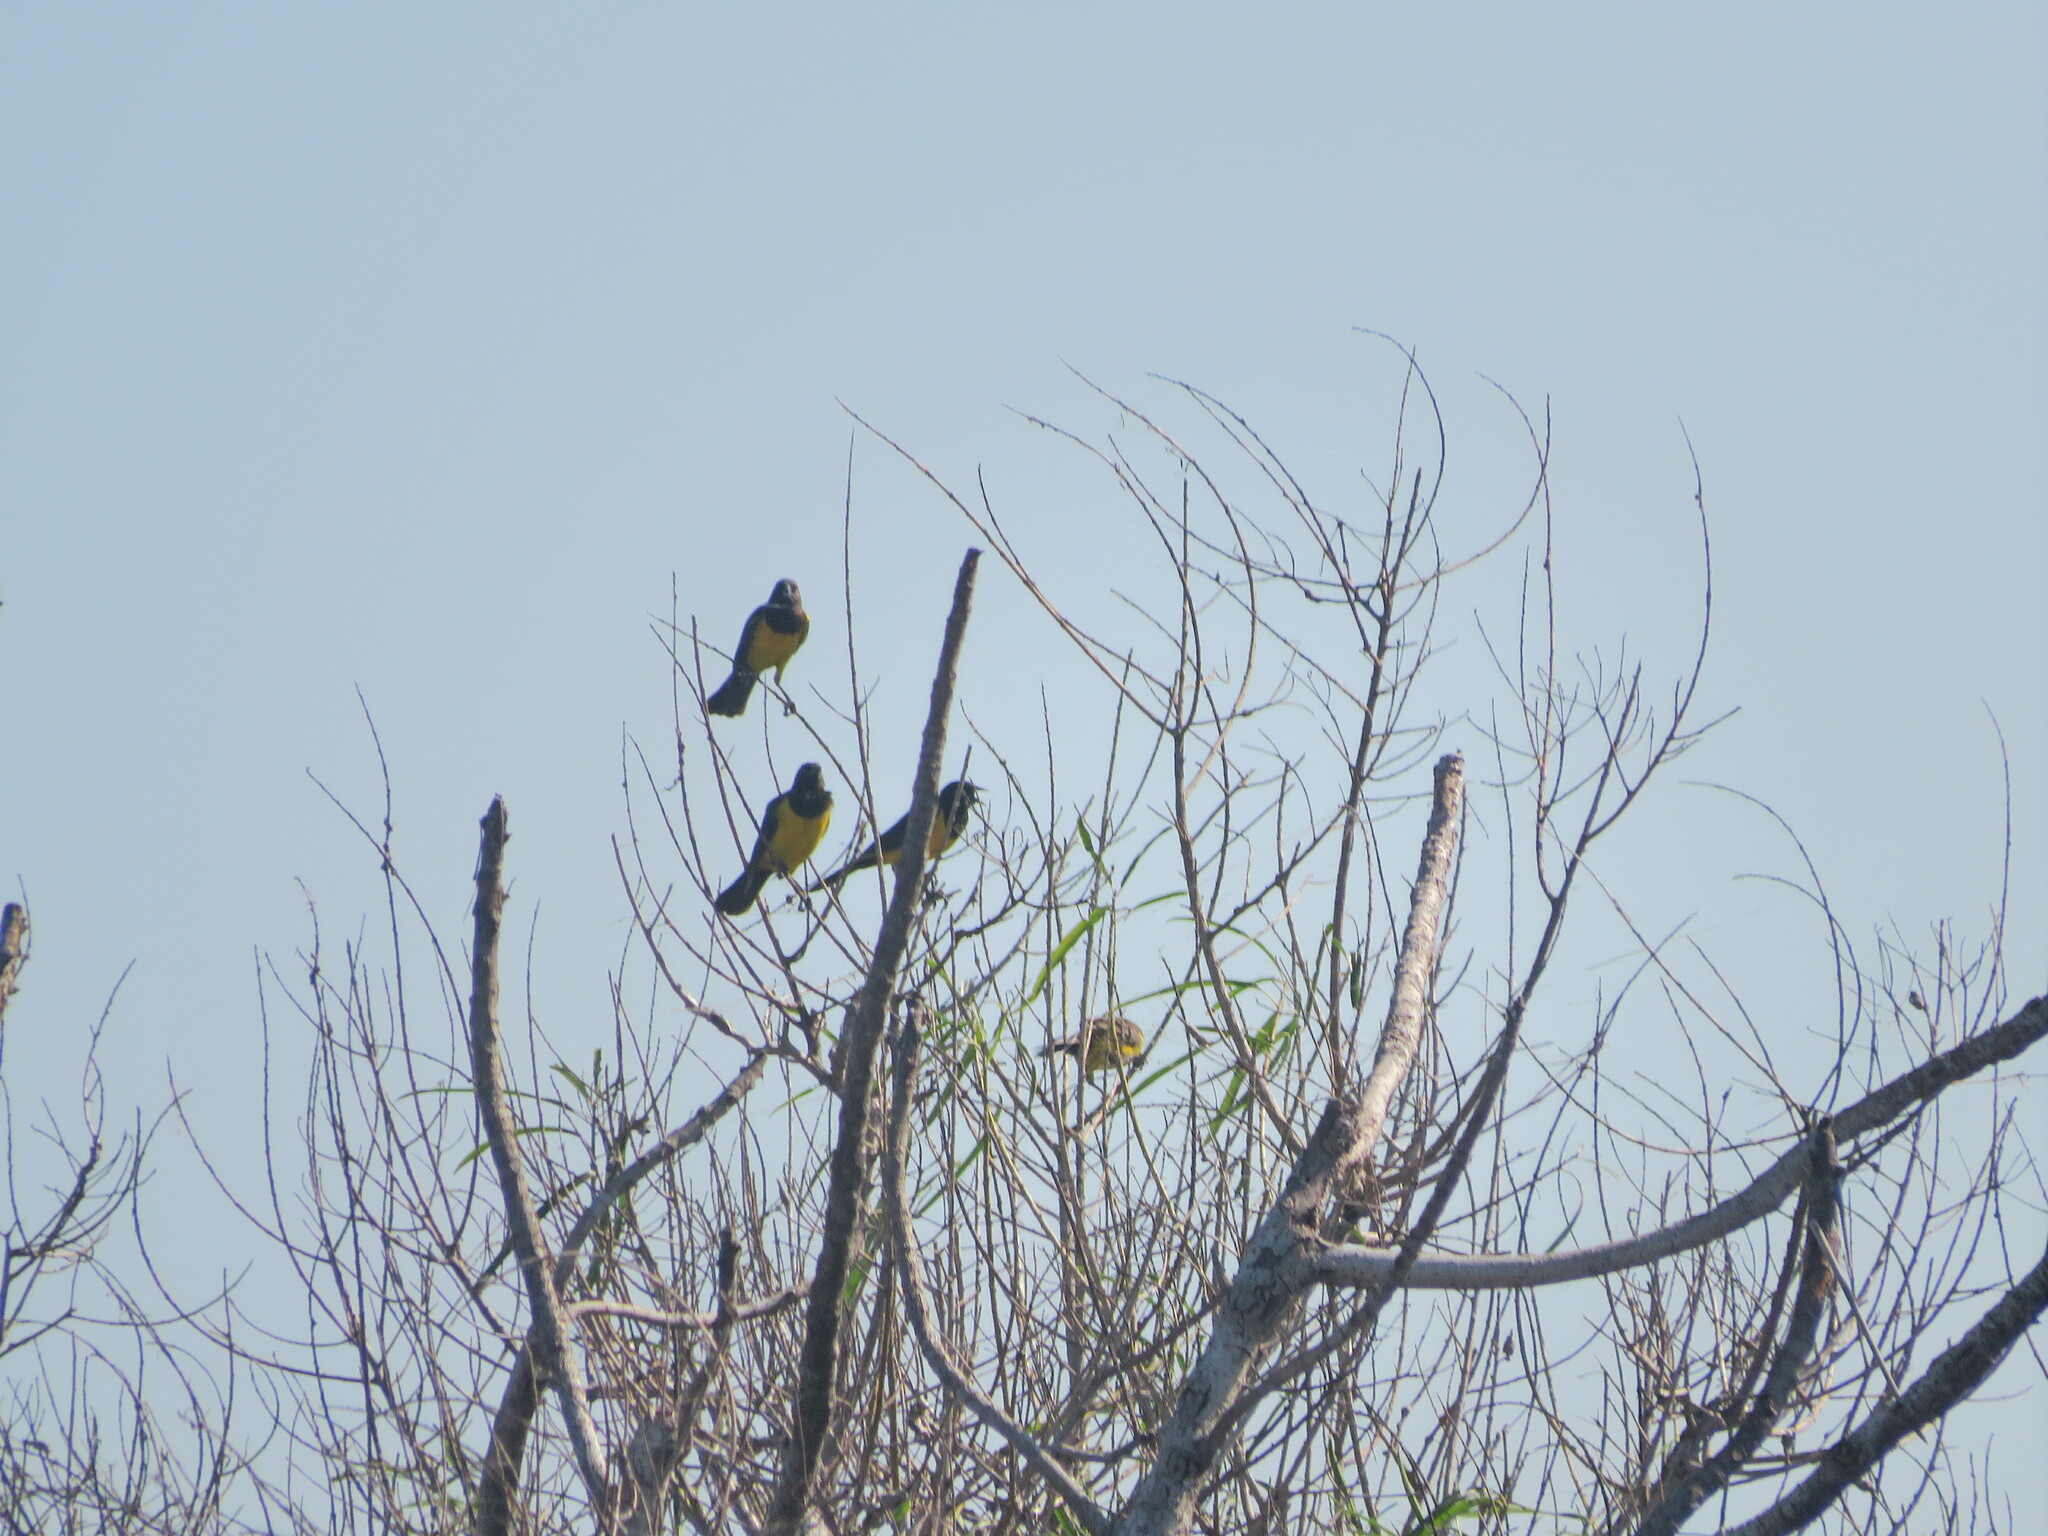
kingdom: Animalia
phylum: Chordata
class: Aves
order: Passeriformes
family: Icteridae
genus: Pseudoleistes
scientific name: Pseudoleistes guirahuro
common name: Yellow-rumped marshbird
